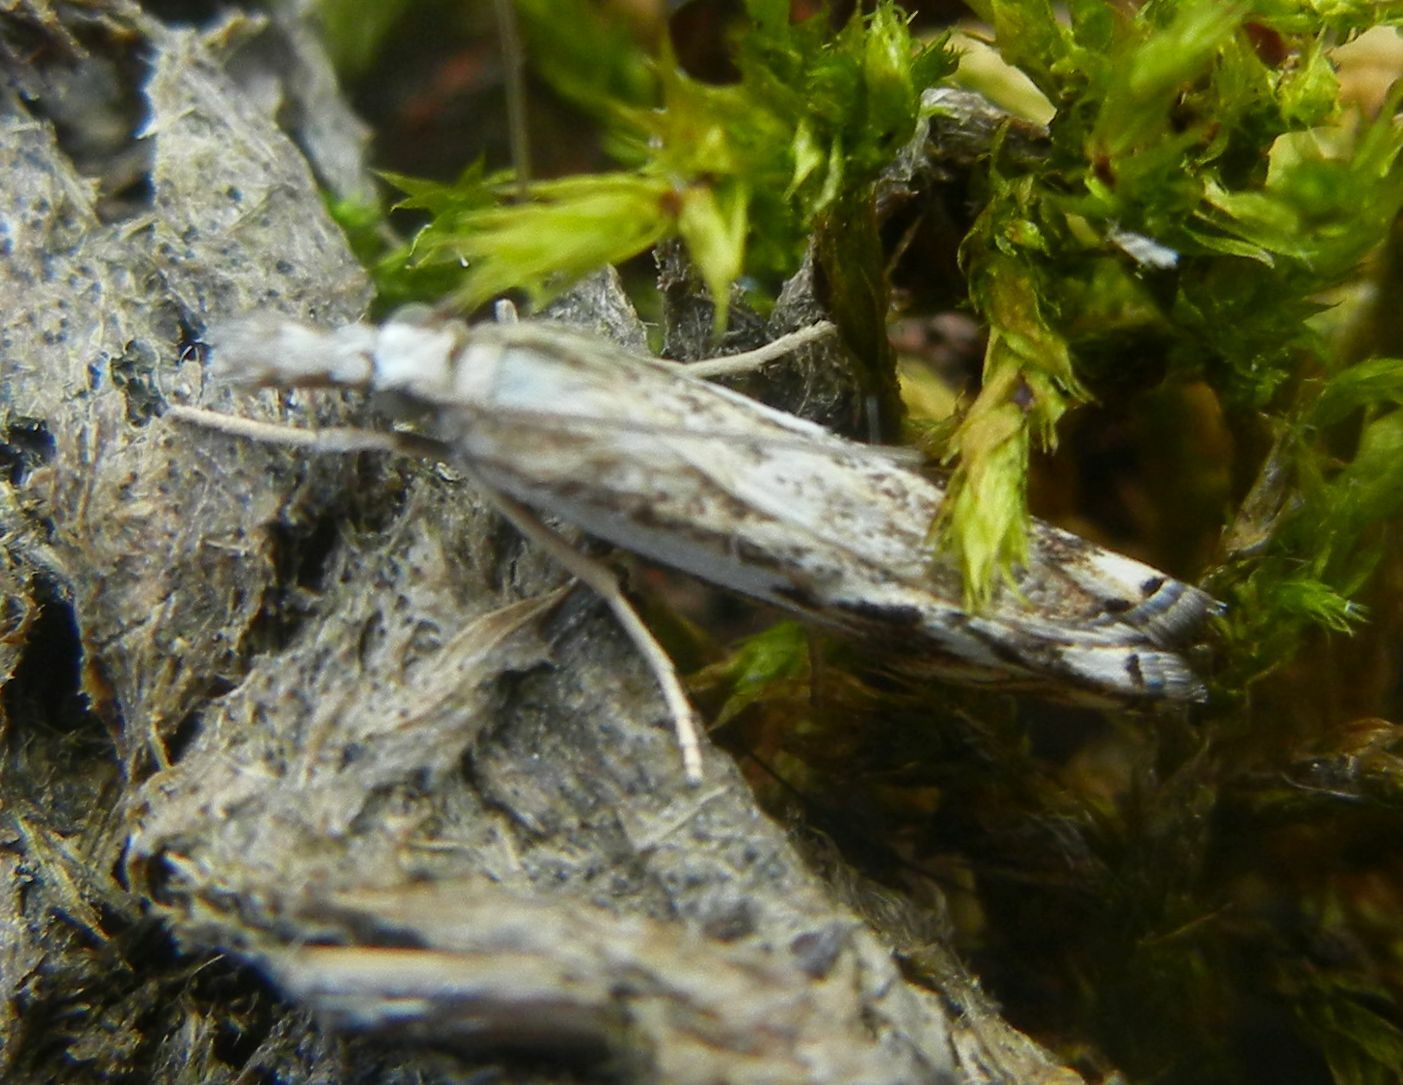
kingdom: Animalia
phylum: Arthropoda
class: Insecta
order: Lepidoptera
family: Crambidae
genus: Catoptria
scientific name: Catoptria falsella
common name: Chequered grass-veneer
